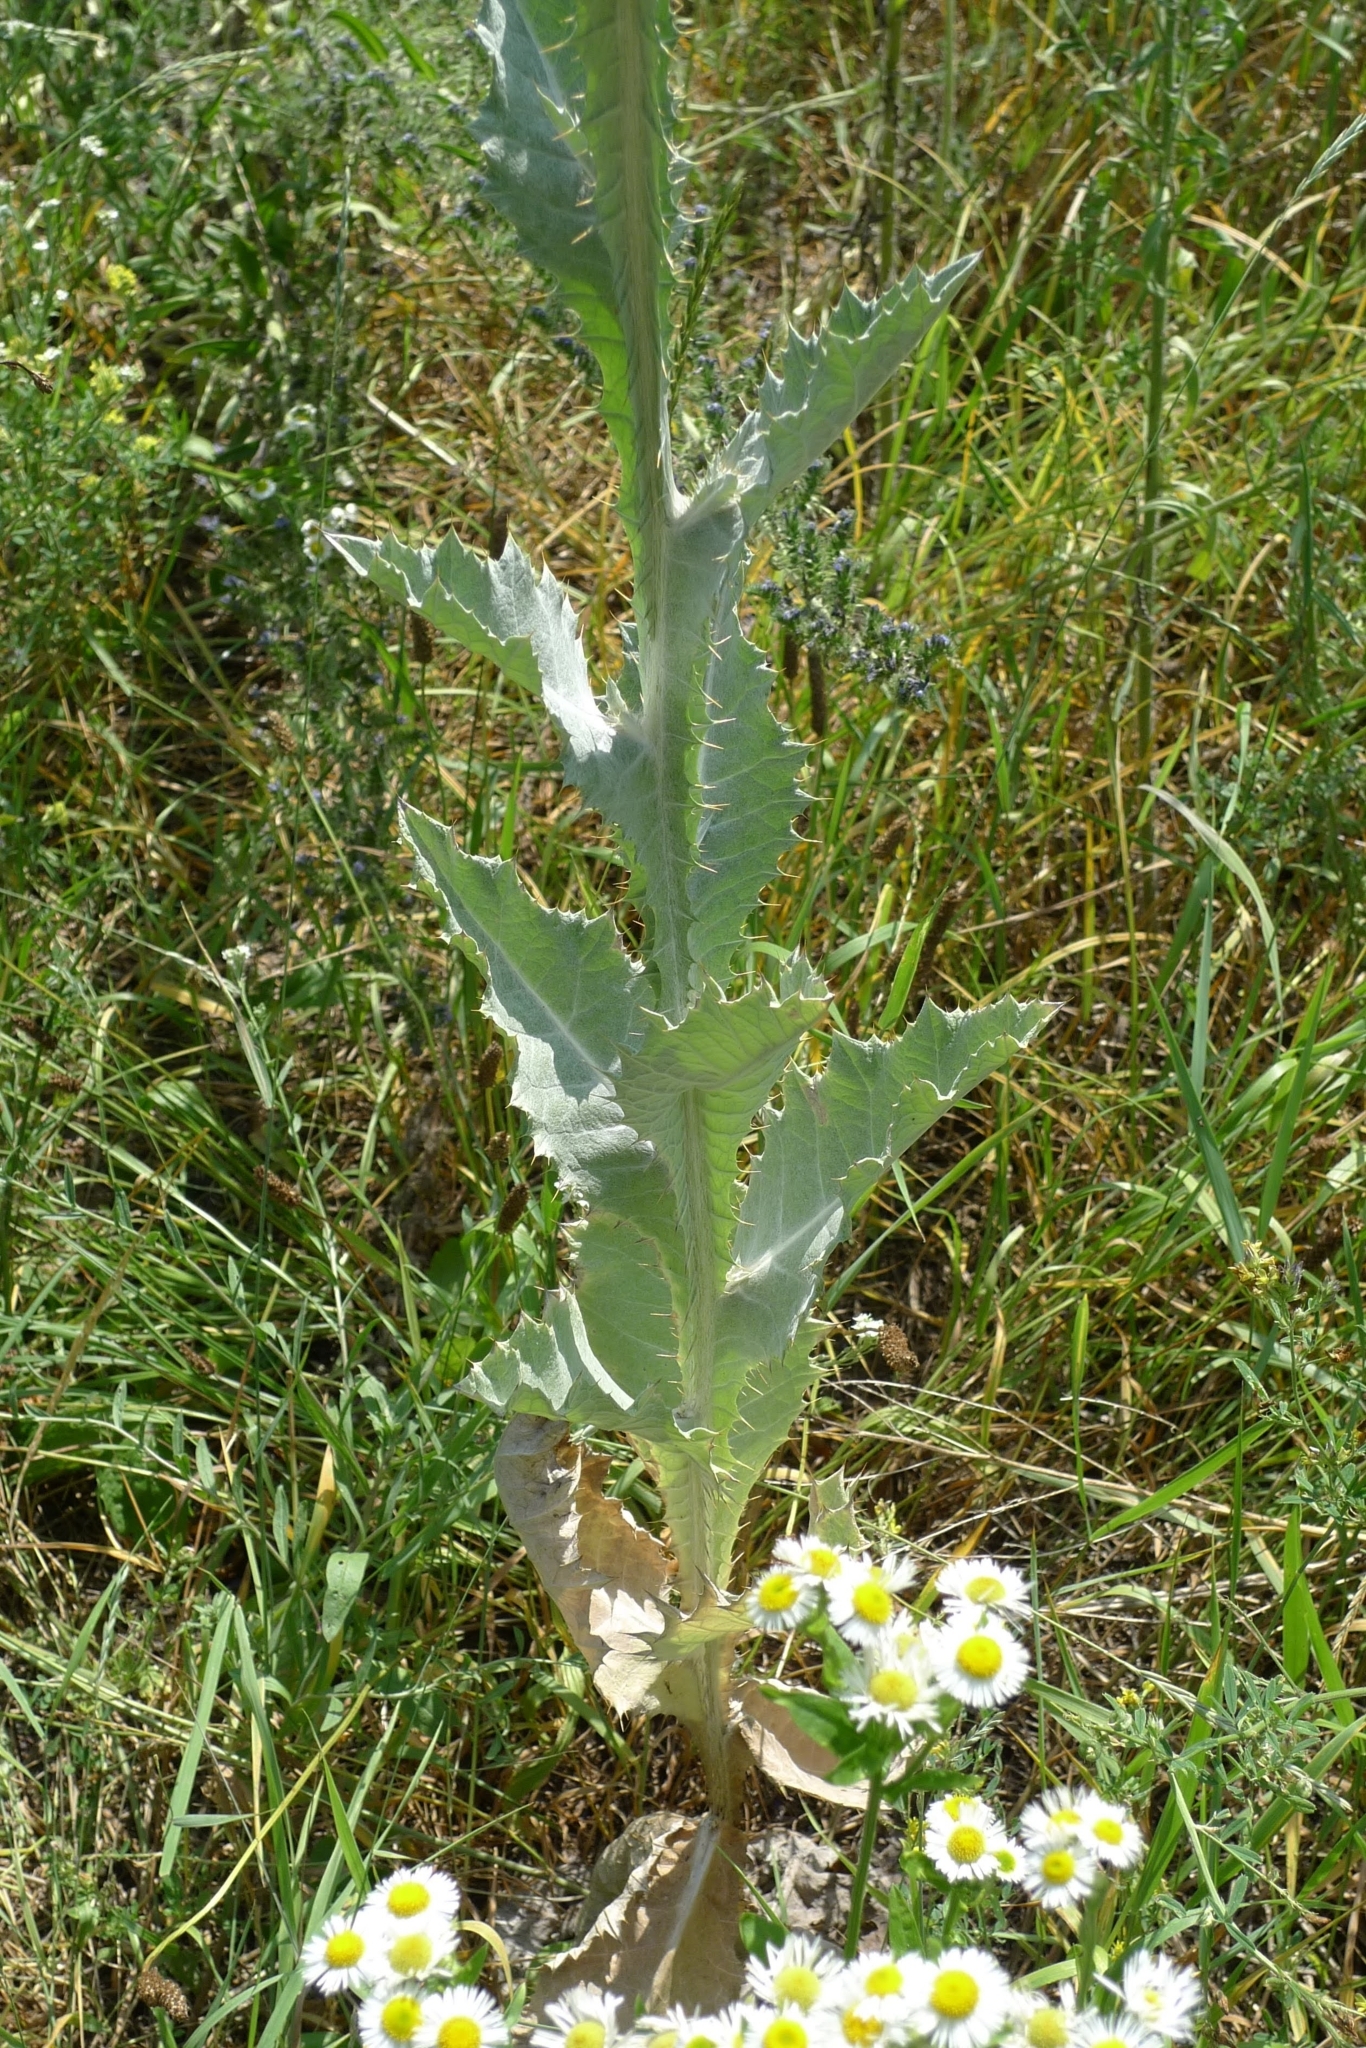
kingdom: Plantae
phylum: Tracheophyta
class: Magnoliopsida
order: Asterales
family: Asteraceae
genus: Onopordum
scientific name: Onopordum acanthium
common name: Scotch thistle
